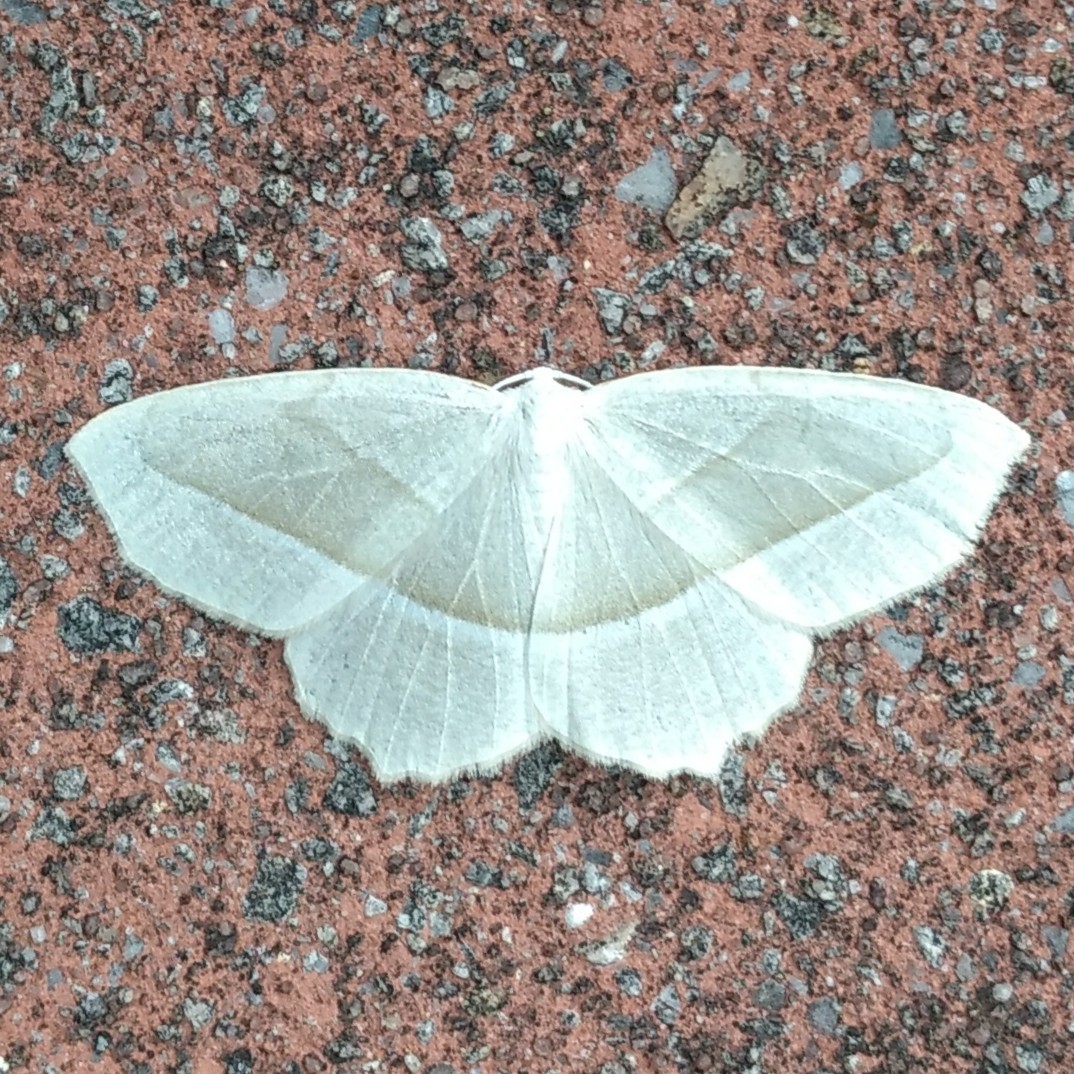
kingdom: Animalia
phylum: Arthropoda
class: Insecta
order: Lepidoptera
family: Geometridae
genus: Campaea
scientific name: Campaea perlata
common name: Fringed looper
